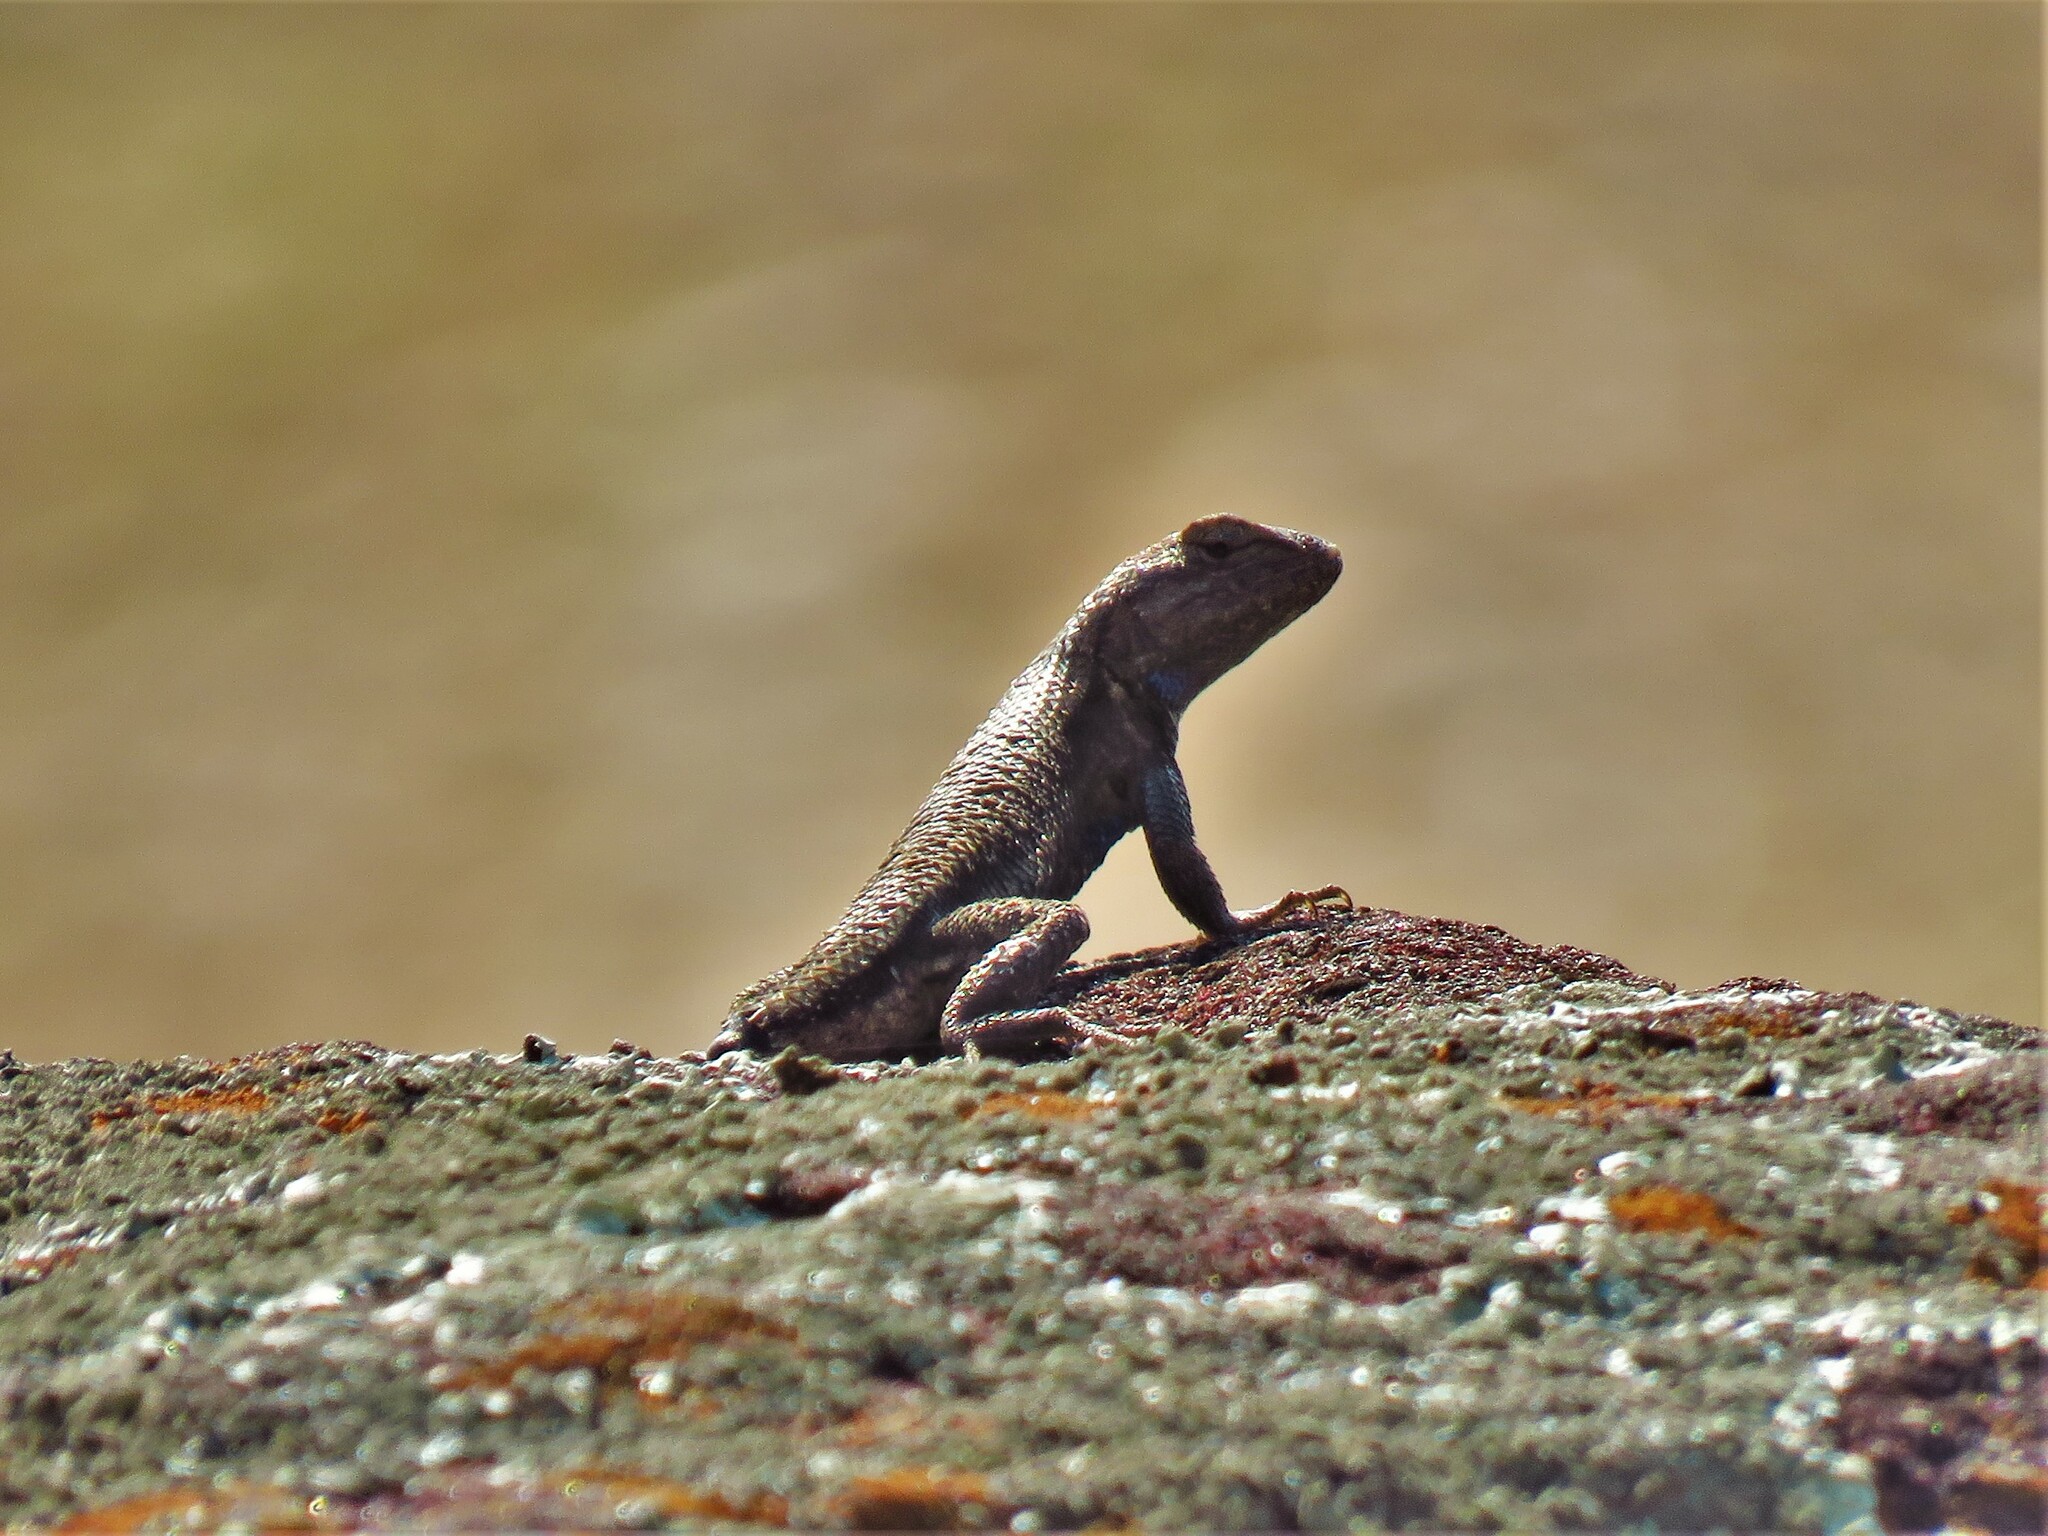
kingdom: Animalia
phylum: Chordata
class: Squamata
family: Phrynosomatidae
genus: Sceloporus
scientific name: Sceloporus consobrinus
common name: Southern prairie lizard
